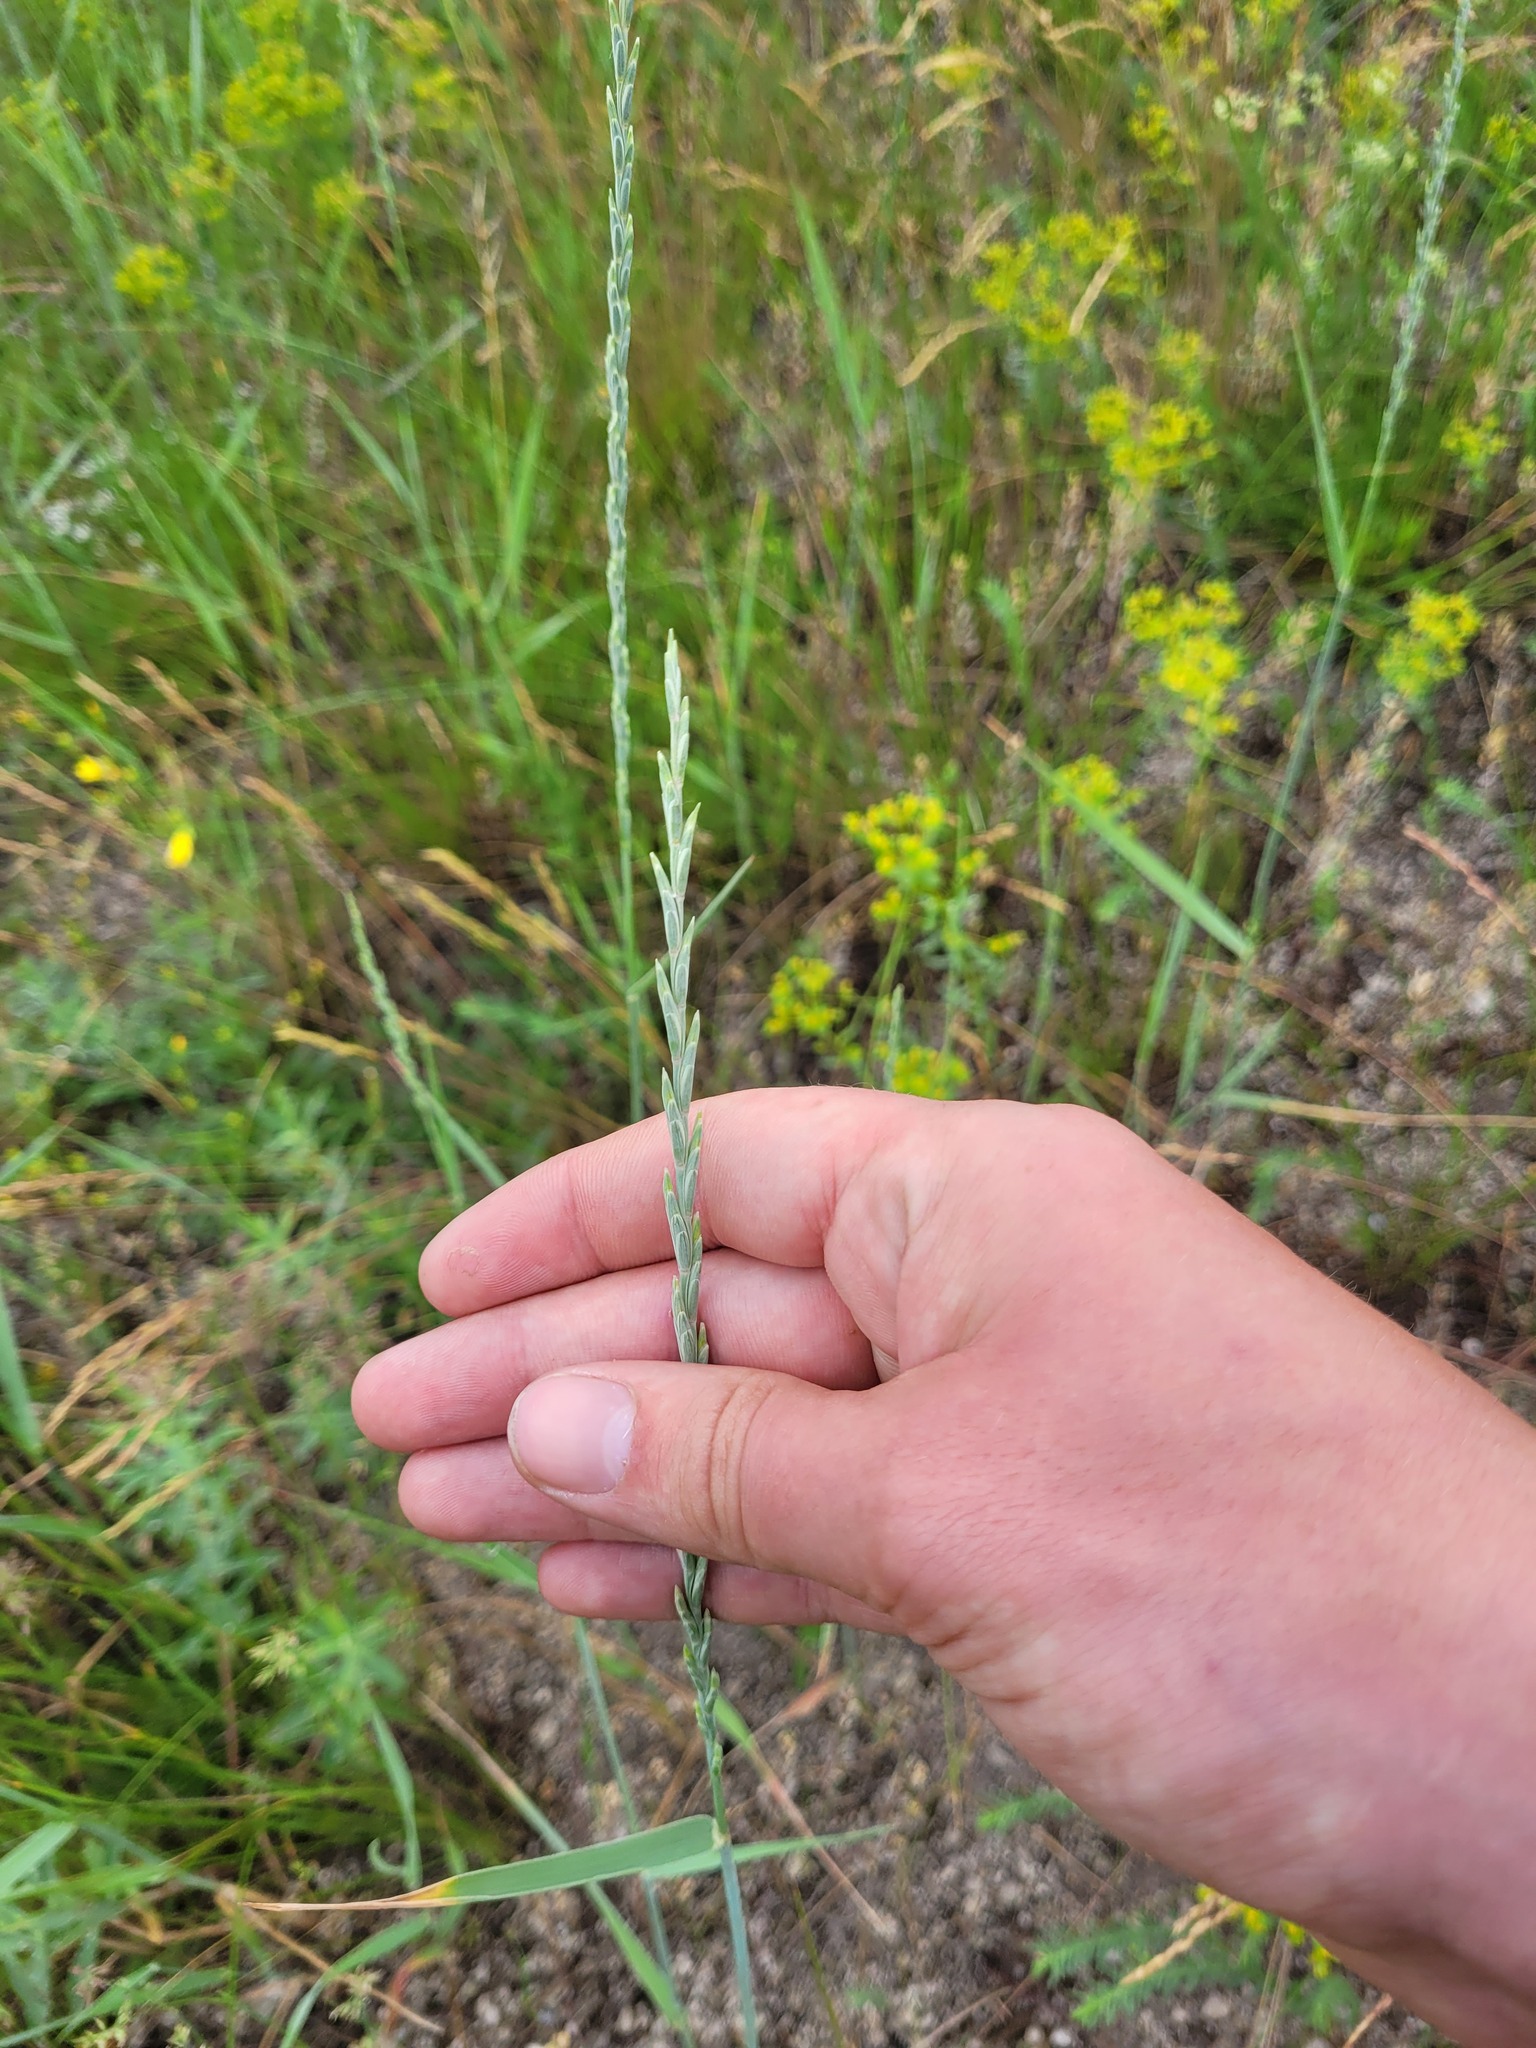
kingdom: Plantae
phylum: Tracheophyta
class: Liliopsida
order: Poales
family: Poaceae
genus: Thinopyrum
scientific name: Thinopyrum intermedium
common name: Intermediate wheatgrass
